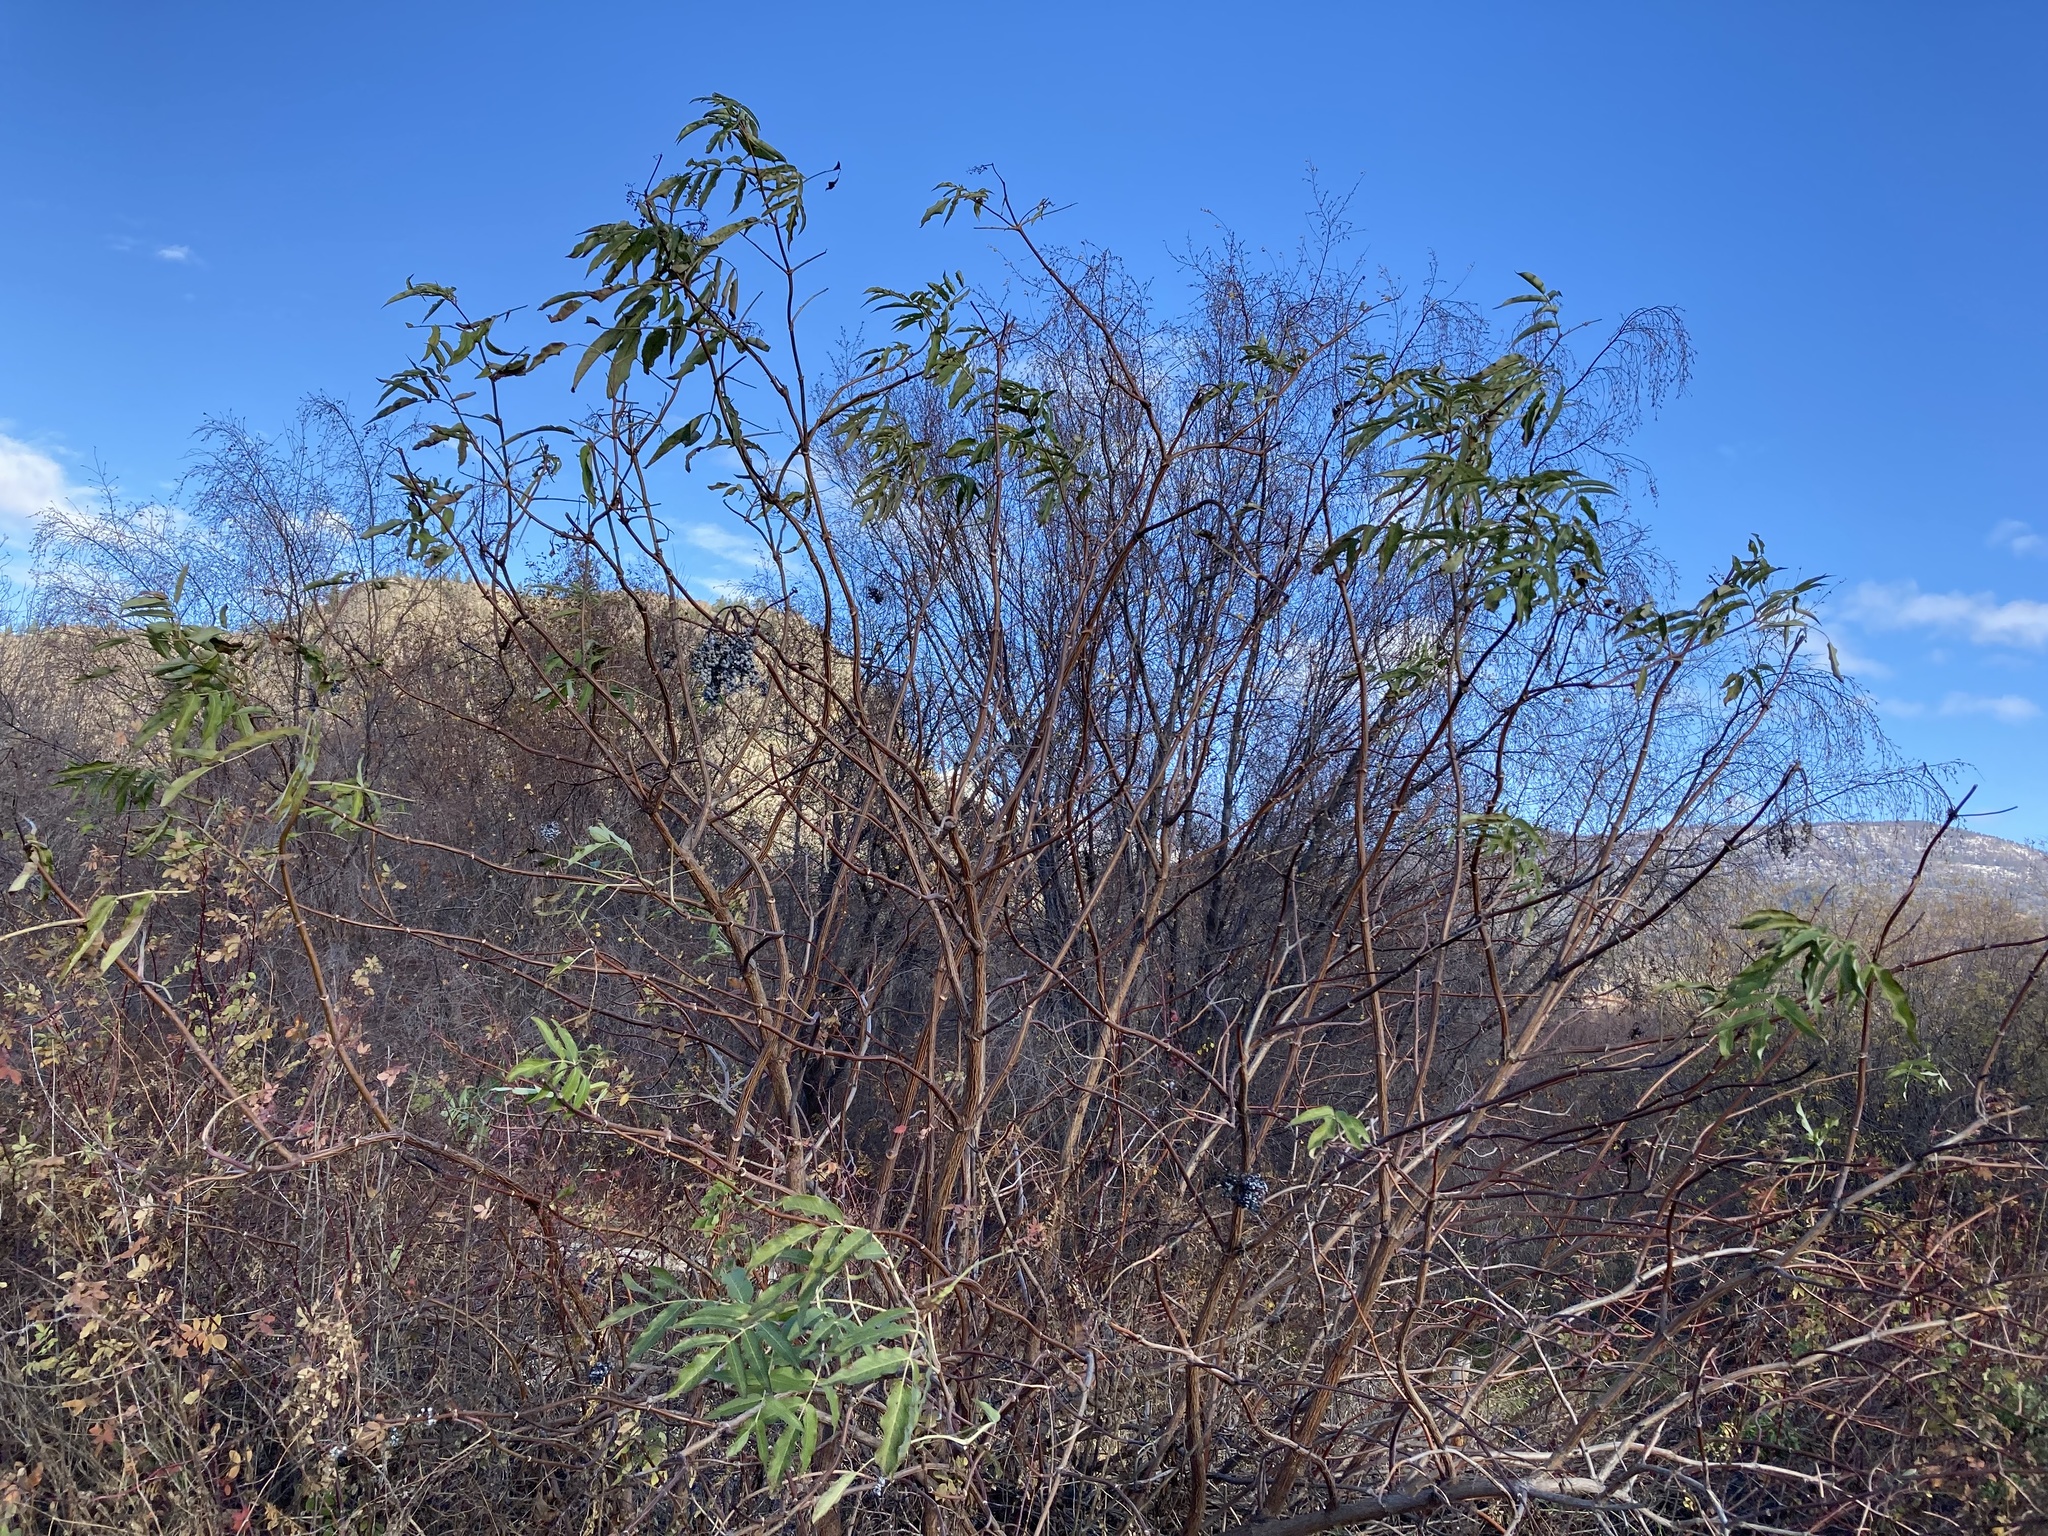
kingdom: Plantae
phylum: Tracheophyta
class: Magnoliopsida
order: Dipsacales
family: Viburnaceae
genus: Sambucus
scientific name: Sambucus cerulea
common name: Blue elder
